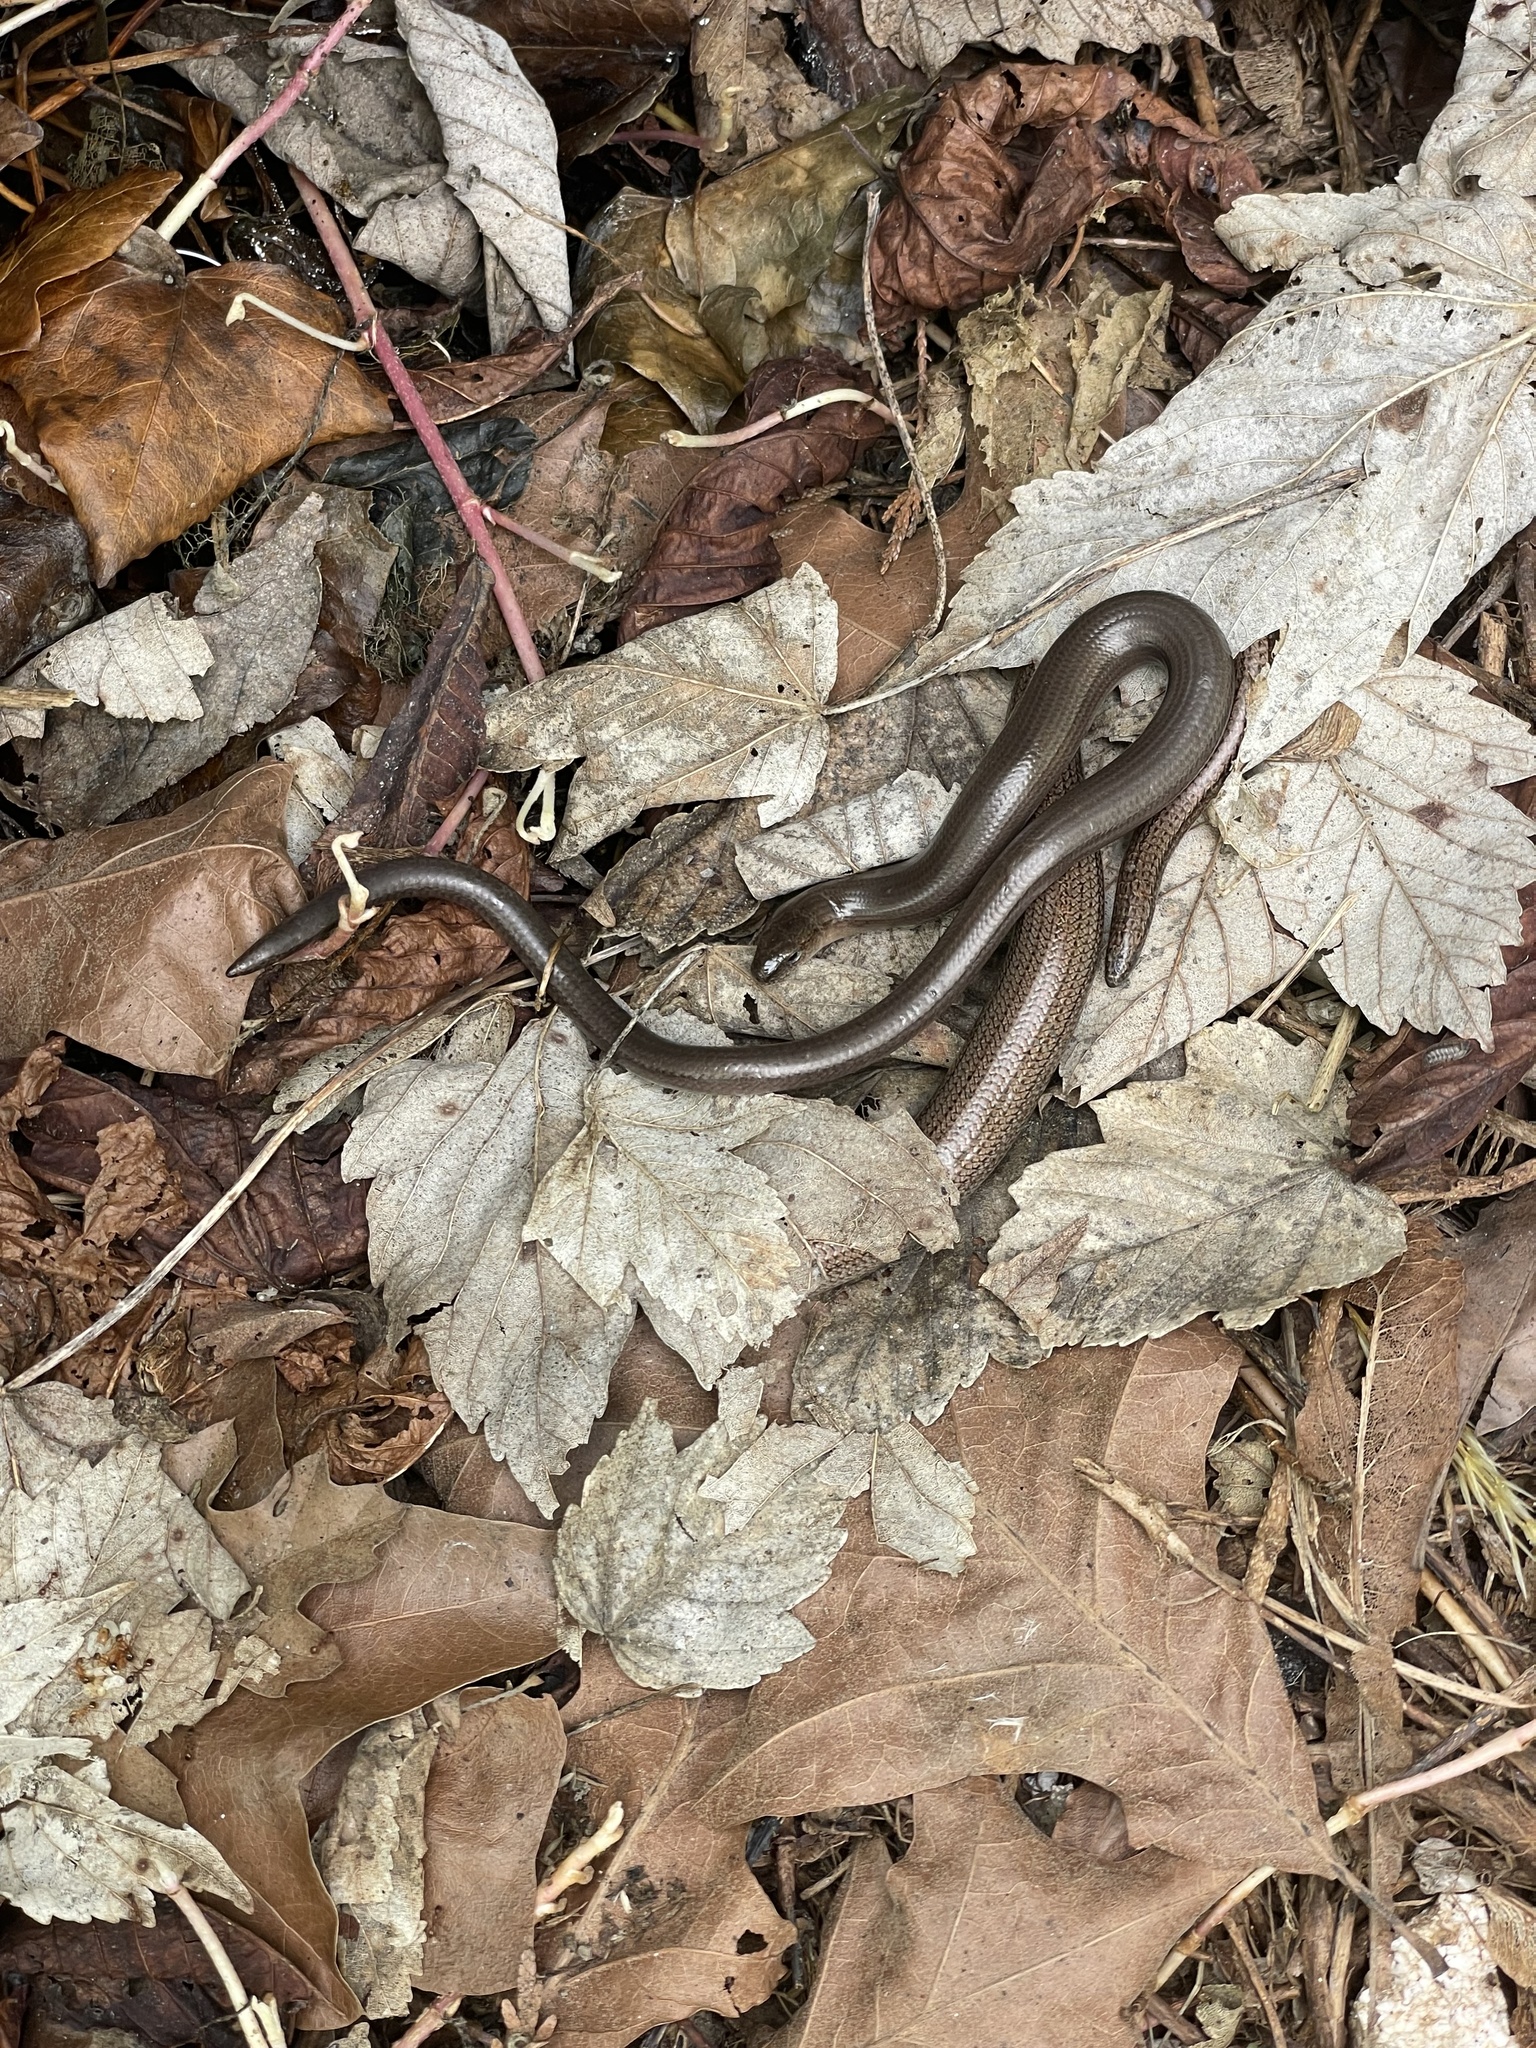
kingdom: Animalia
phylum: Chordata
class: Squamata
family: Anguidae
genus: Anguis
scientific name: Anguis fragilis
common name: Slow worm
